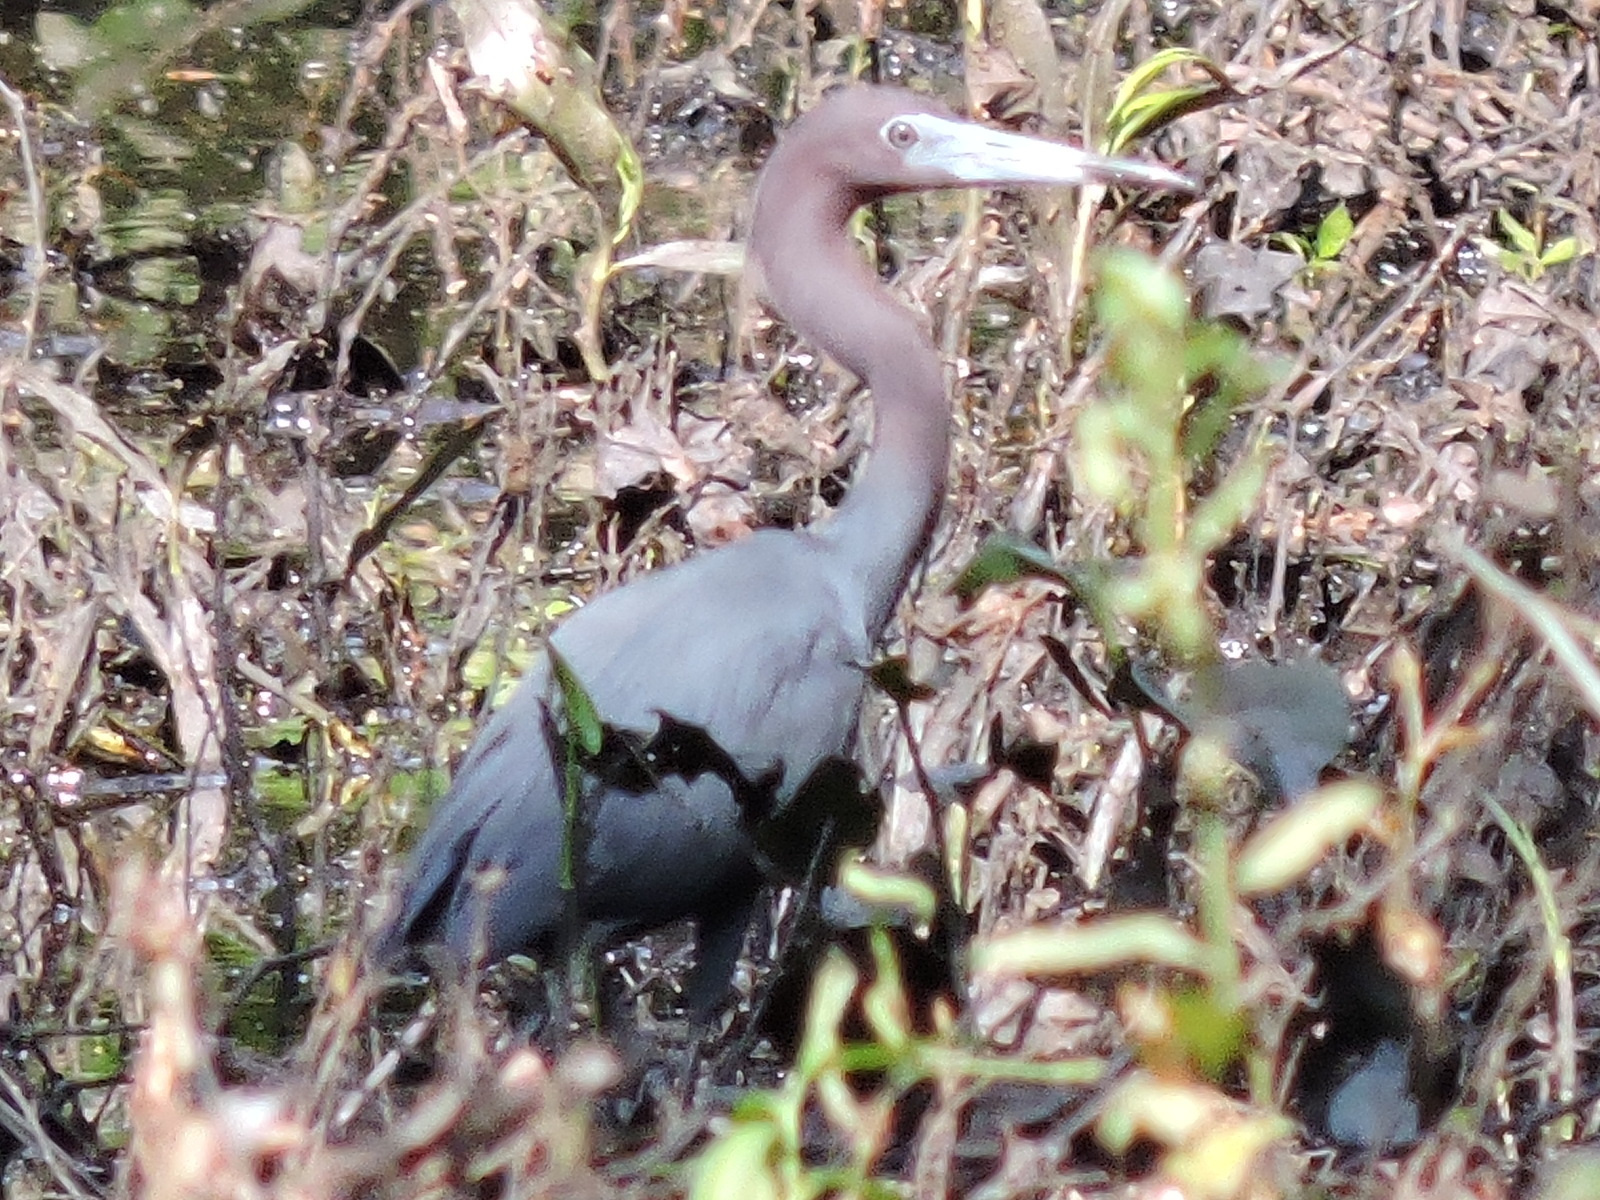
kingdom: Animalia
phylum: Chordata
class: Aves
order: Pelecaniformes
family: Ardeidae
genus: Egretta
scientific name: Egretta caerulea
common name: Little blue heron
